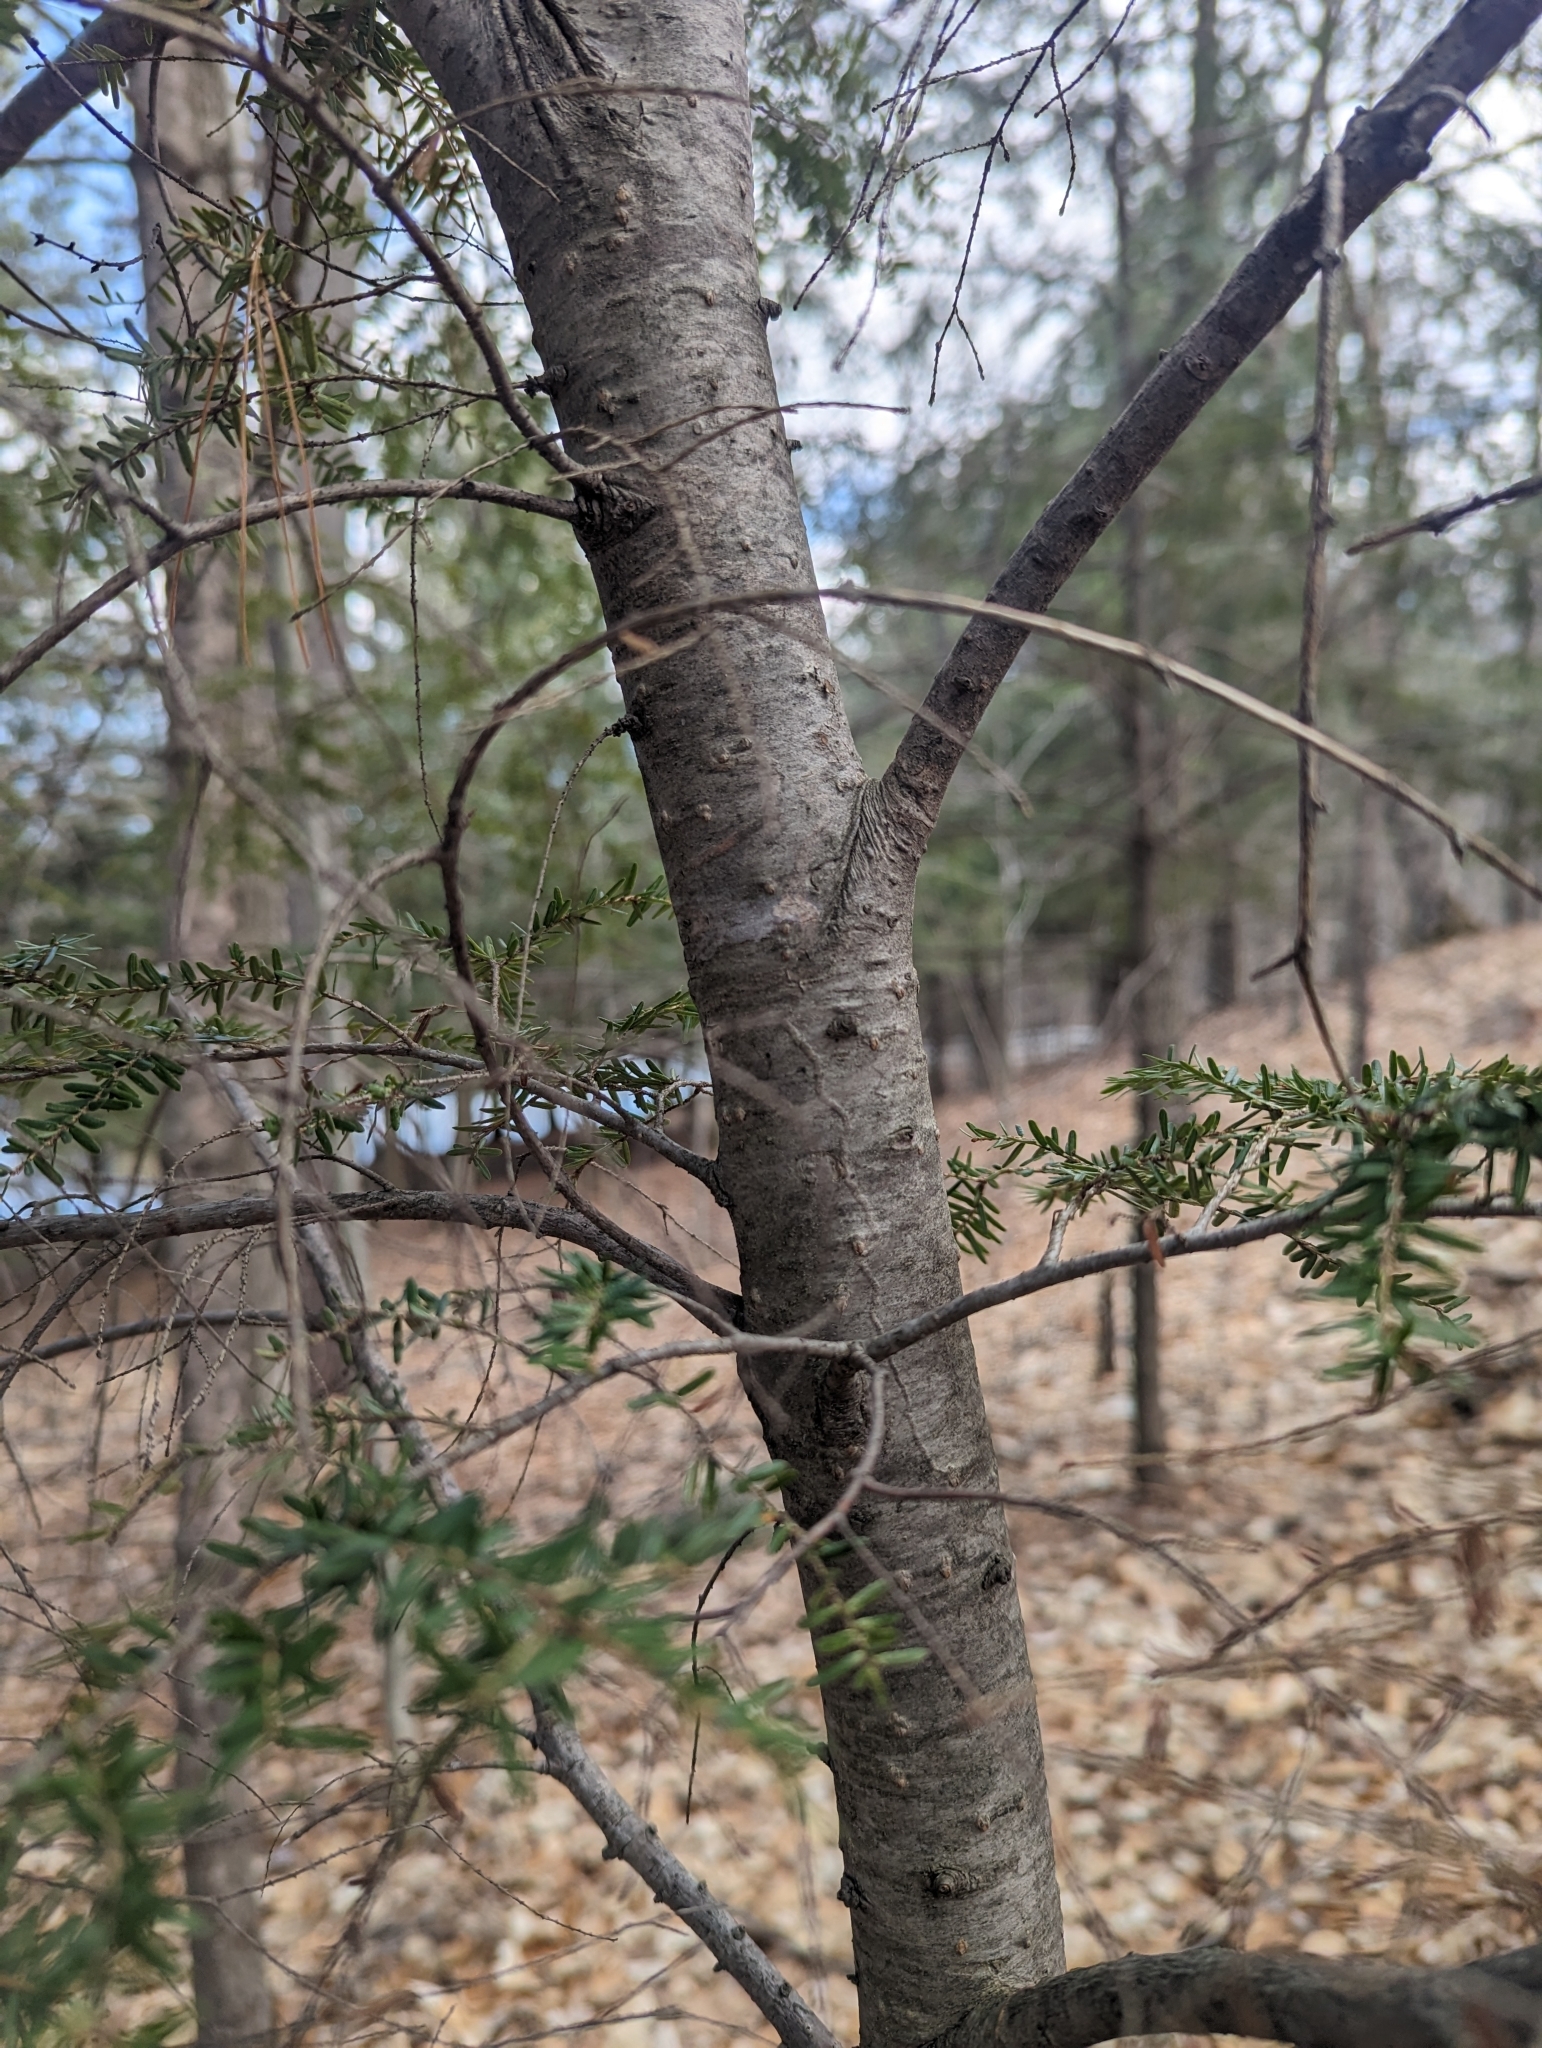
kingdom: Plantae
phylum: Tracheophyta
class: Pinopsida
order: Pinales
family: Pinaceae
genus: Tsuga
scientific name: Tsuga canadensis
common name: Eastern hemlock
